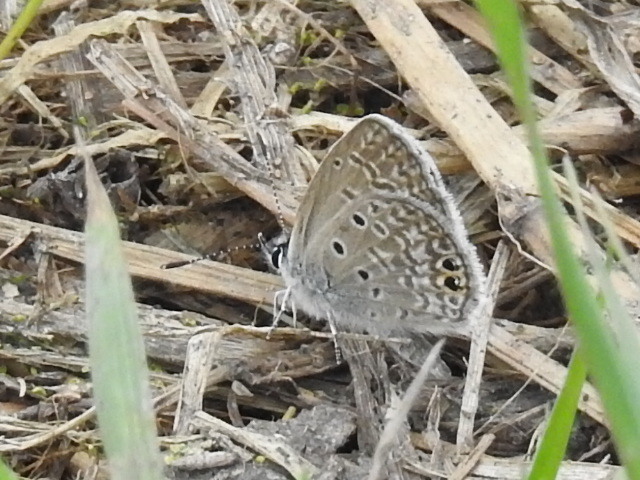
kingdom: Animalia
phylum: Arthropoda
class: Insecta
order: Lepidoptera
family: Lycaenidae
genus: Hemiargus
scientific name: Hemiargus ceraunus
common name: Ceraunus blue
